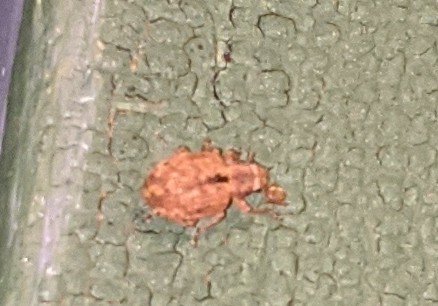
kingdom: Animalia
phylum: Arthropoda
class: Insecta
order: Coleoptera
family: Curculionidae
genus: Strophosoma
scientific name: Strophosoma melanogrammum
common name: Weevil
